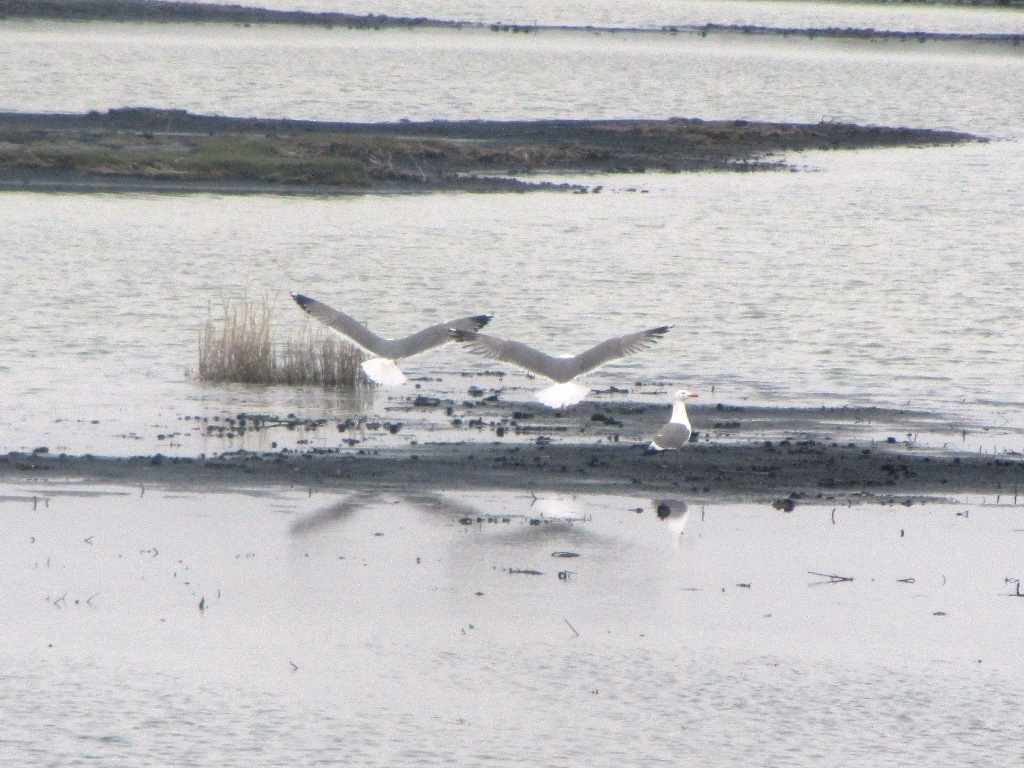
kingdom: Animalia
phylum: Chordata
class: Aves
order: Charadriiformes
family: Laridae
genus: Larus
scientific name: Larus fuscus
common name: Lesser black-backed gull
